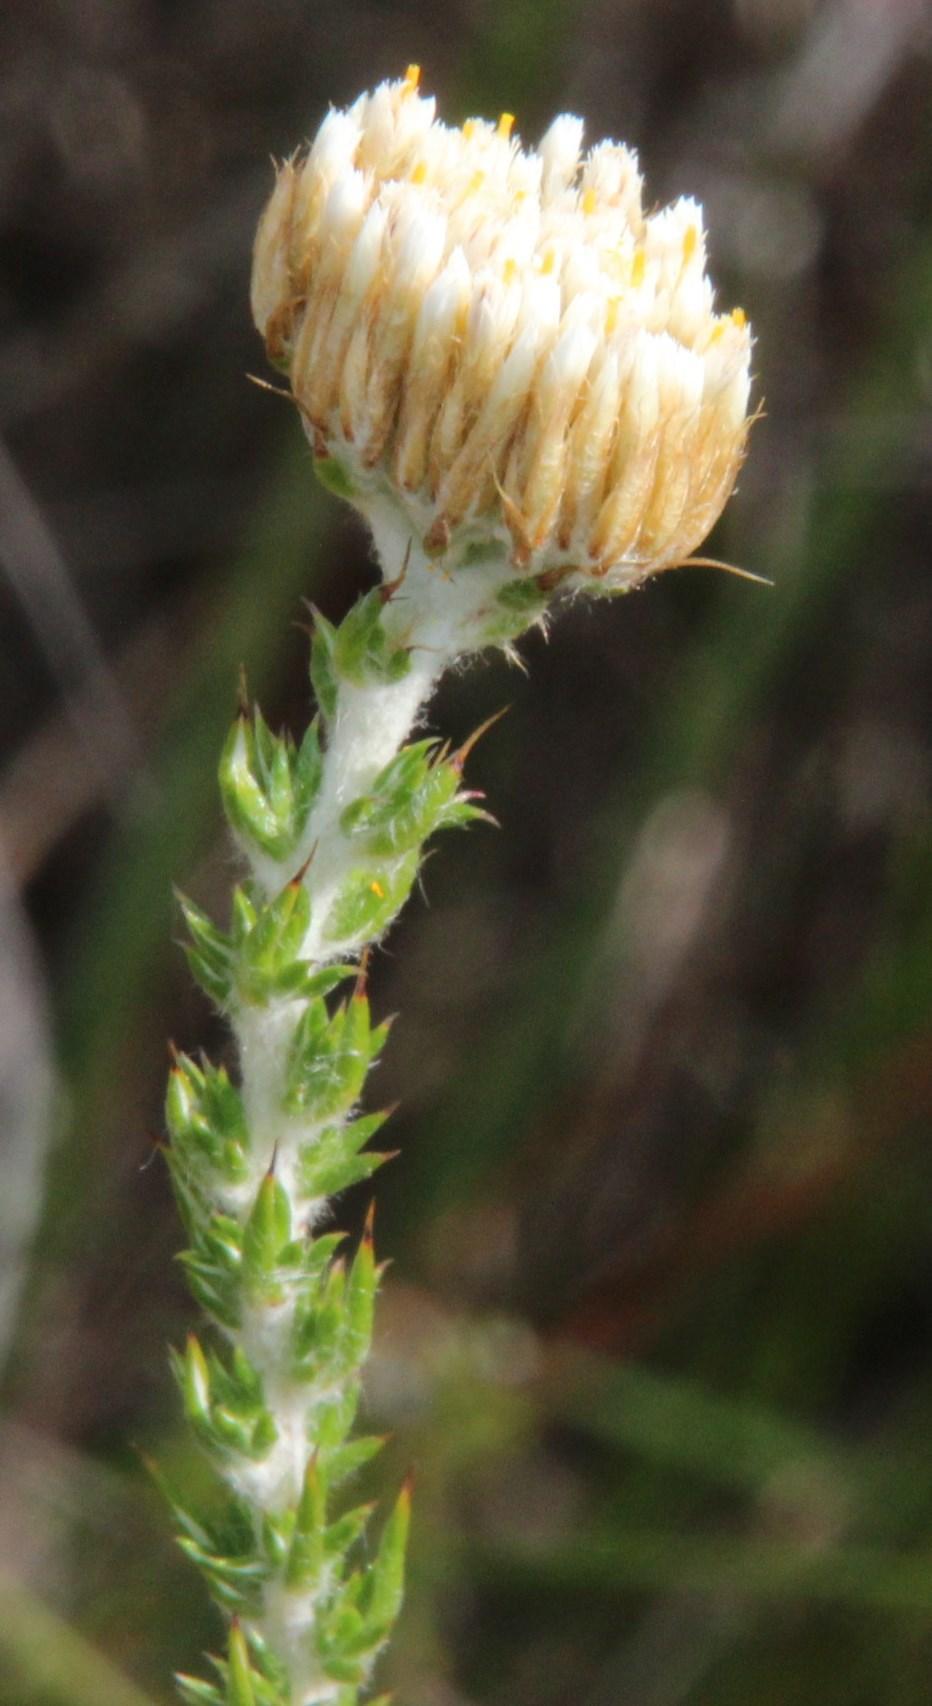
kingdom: Plantae
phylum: Tracheophyta
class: Magnoliopsida
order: Asterales
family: Asteraceae
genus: Metalasia
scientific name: Metalasia pungens
